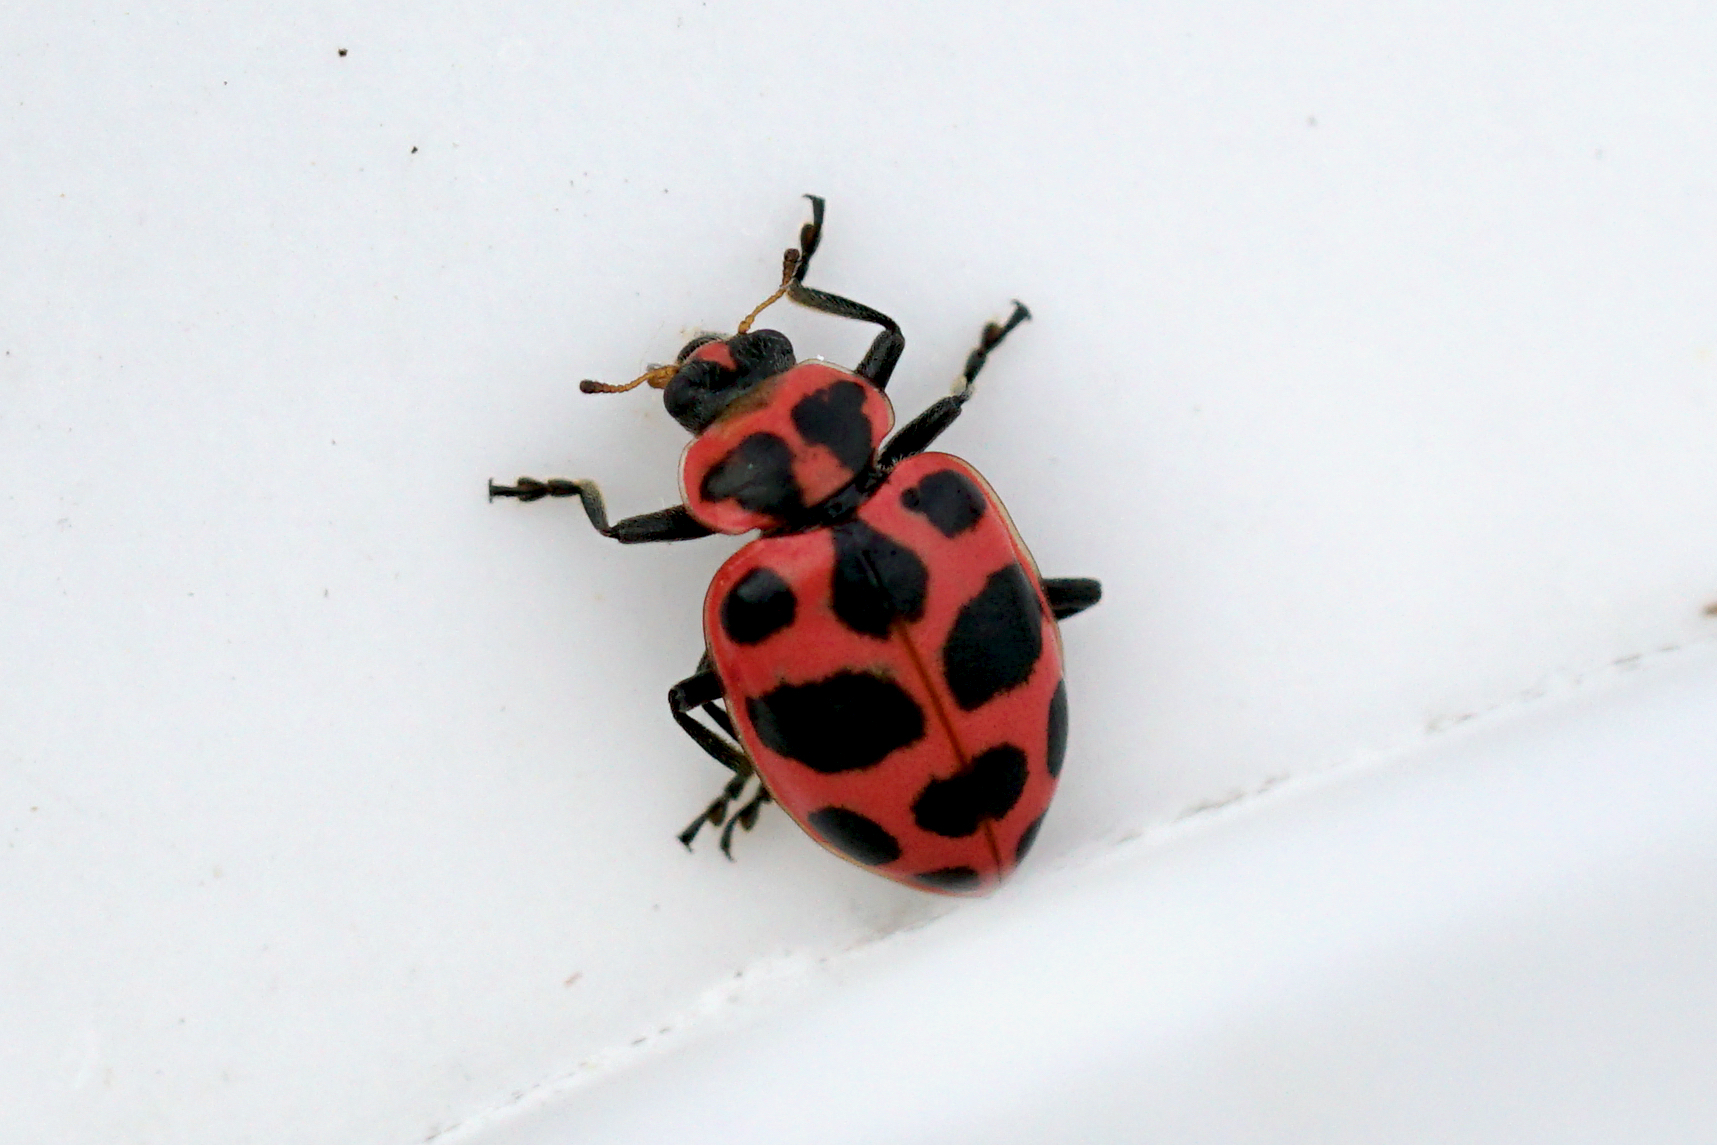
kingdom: Animalia
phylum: Arthropoda
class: Insecta
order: Coleoptera
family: Coccinellidae
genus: Coleomegilla
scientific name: Coleomegilla maculata
